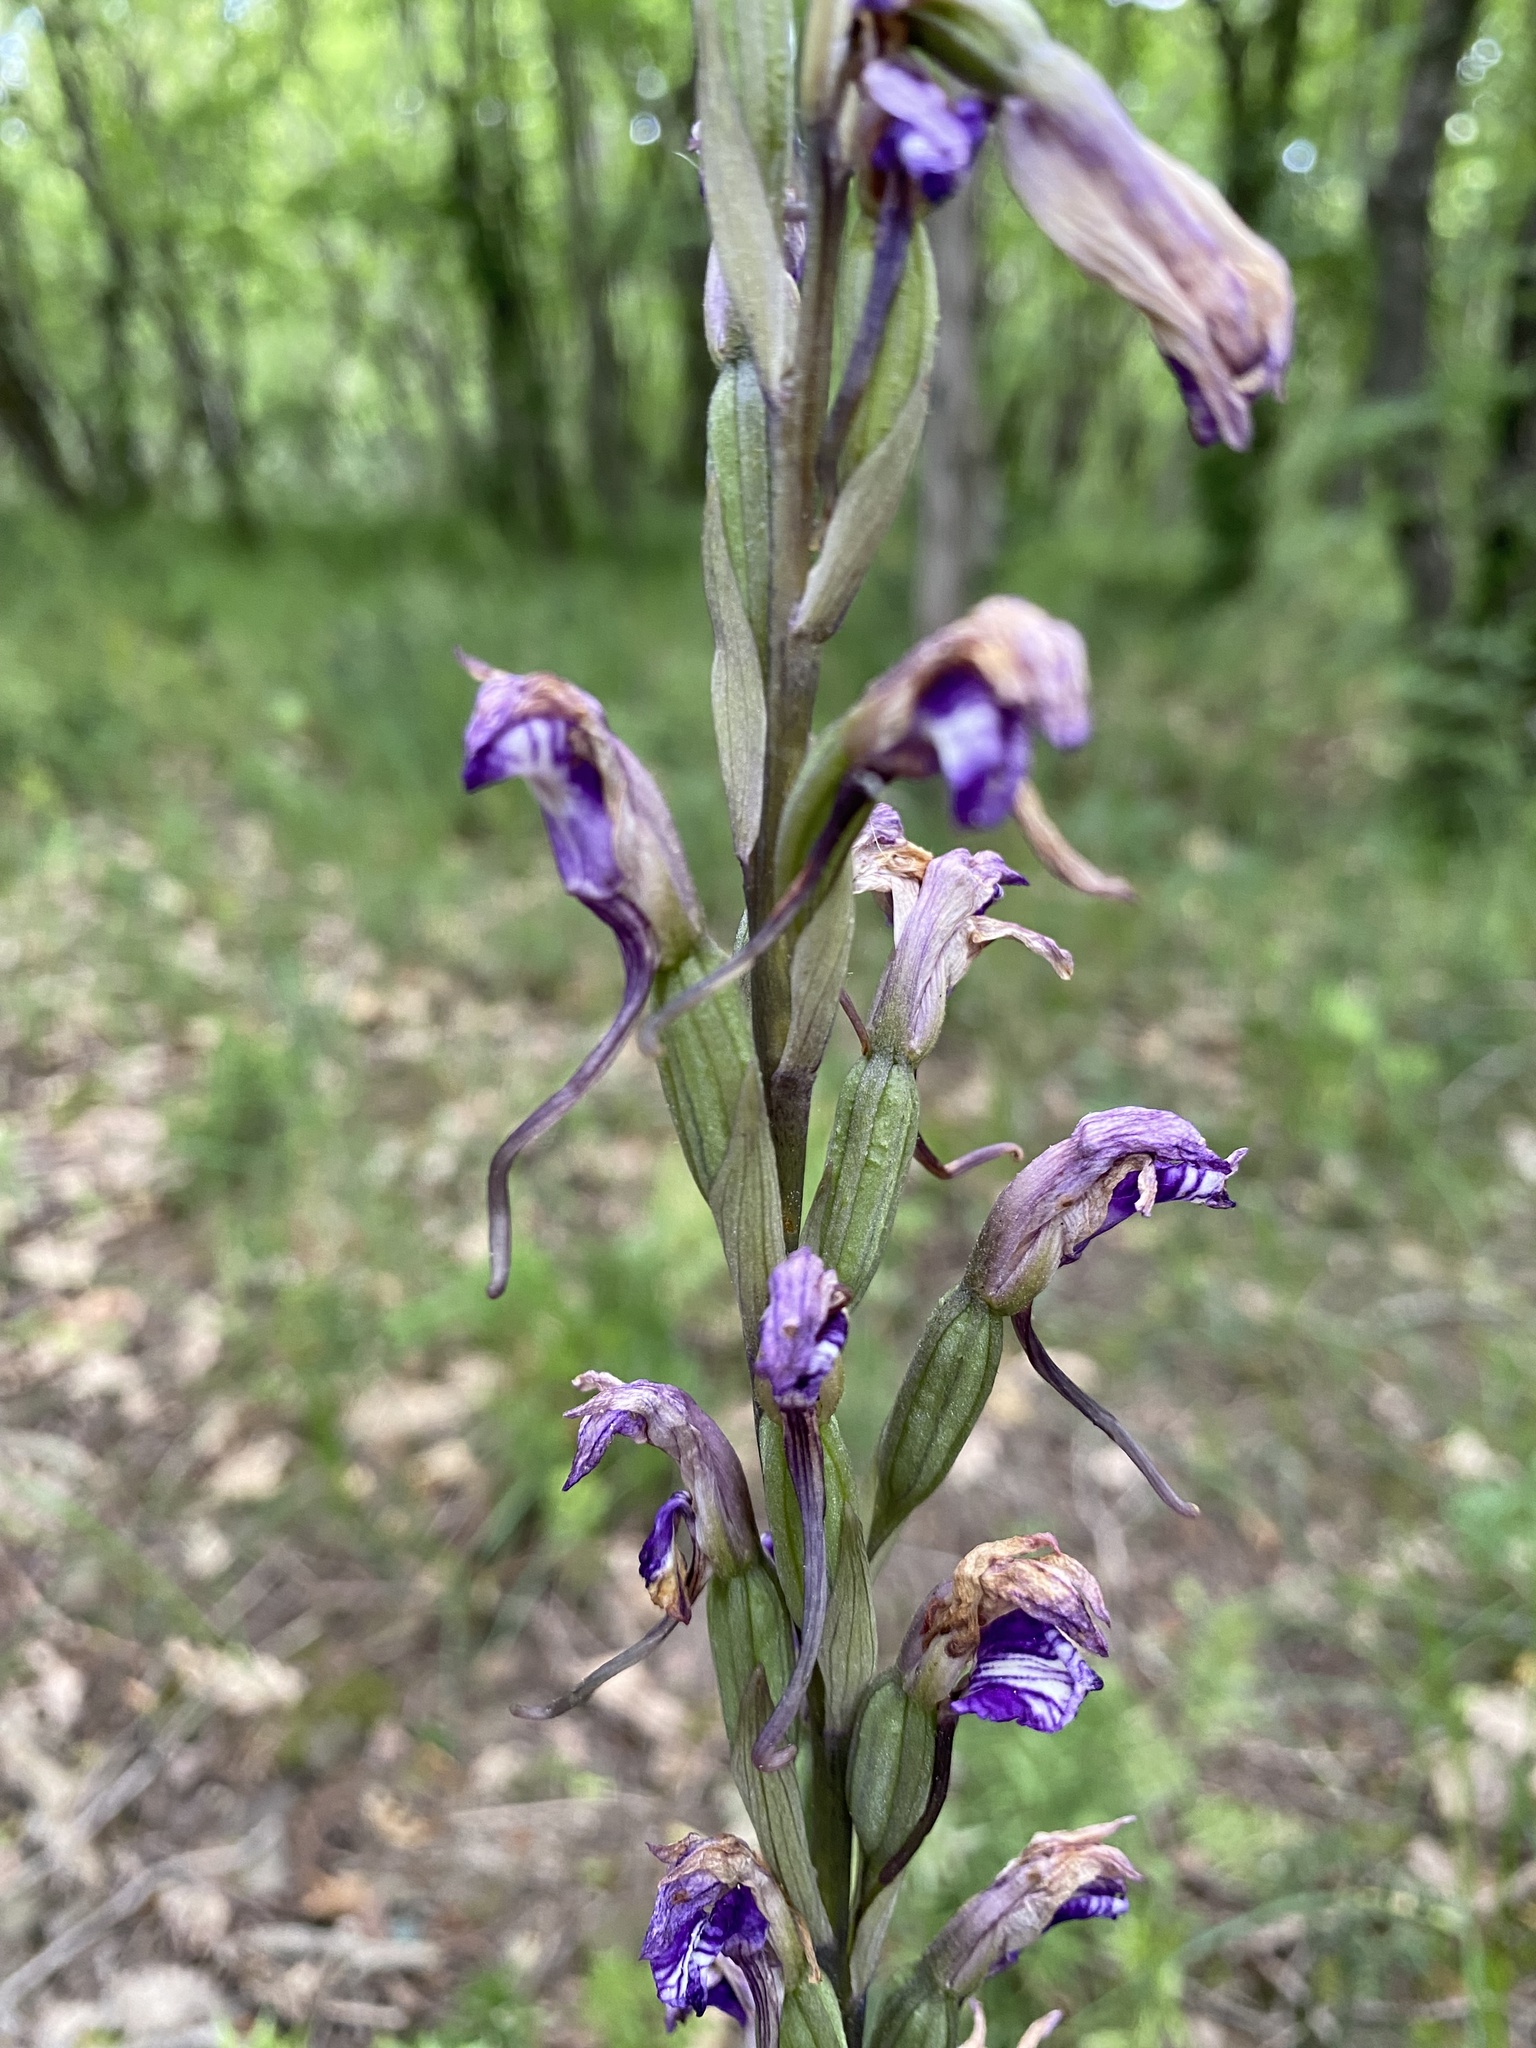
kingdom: Plantae
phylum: Tracheophyta
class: Liliopsida
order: Asparagales
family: Orchidaceae
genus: Limodorum
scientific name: Limodorum abortivum
